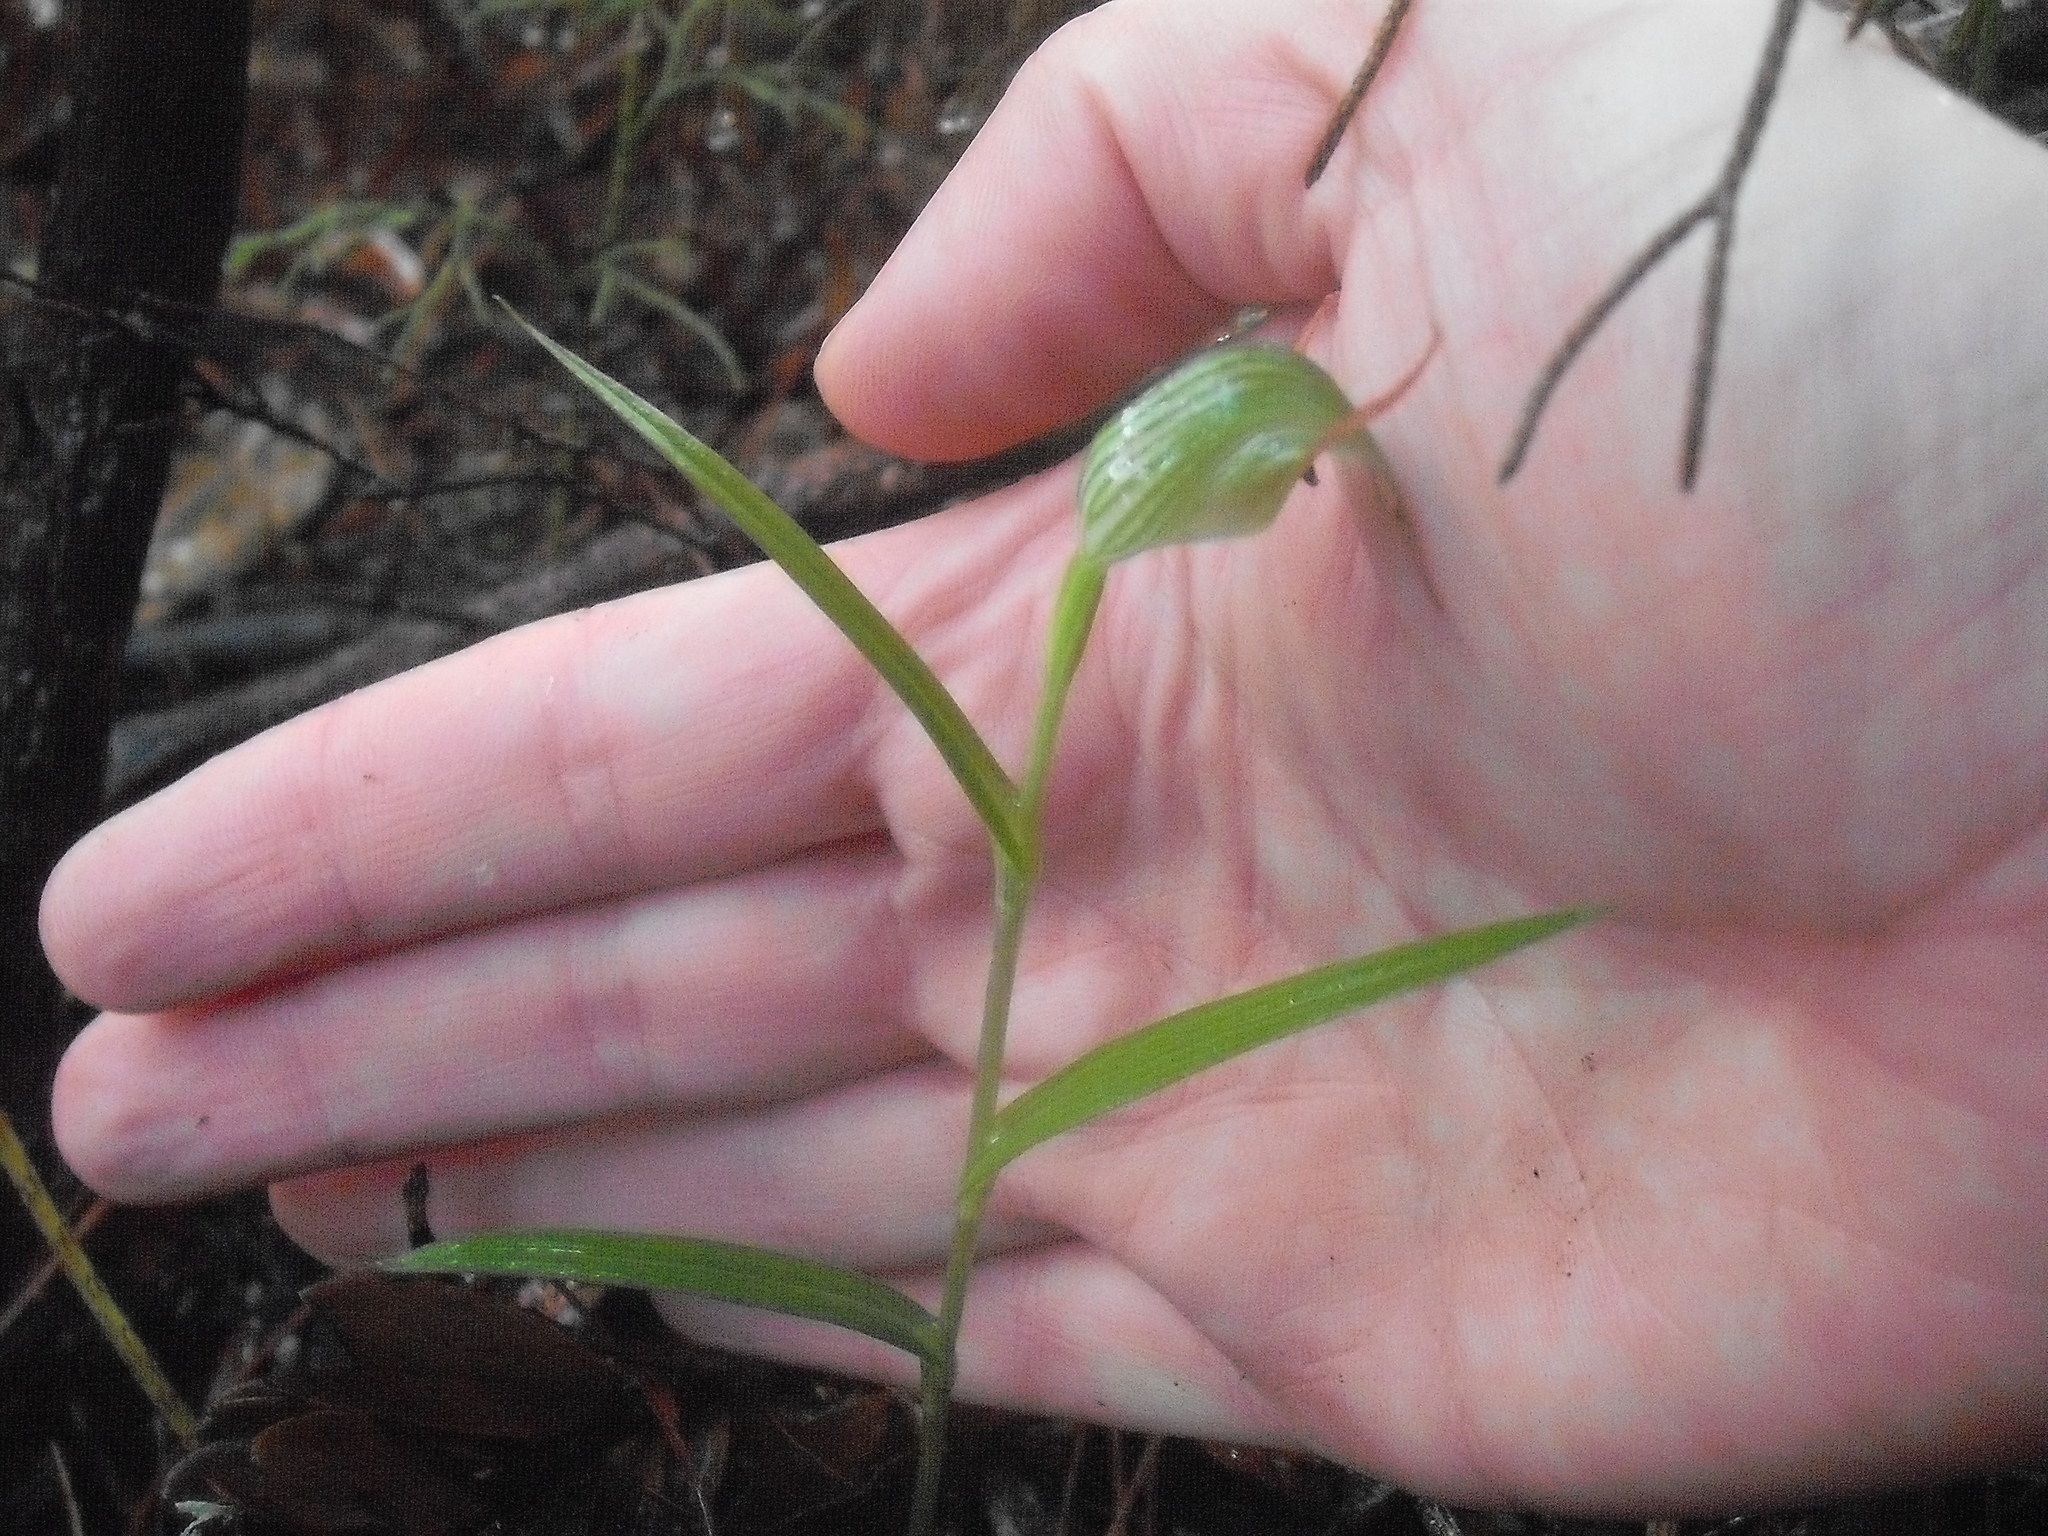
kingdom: Plantae
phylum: Tracheophyta
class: Liliopsida
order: Asparagales
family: Orchidaceae
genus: Pterostylis
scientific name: Pterostylis agathicola
